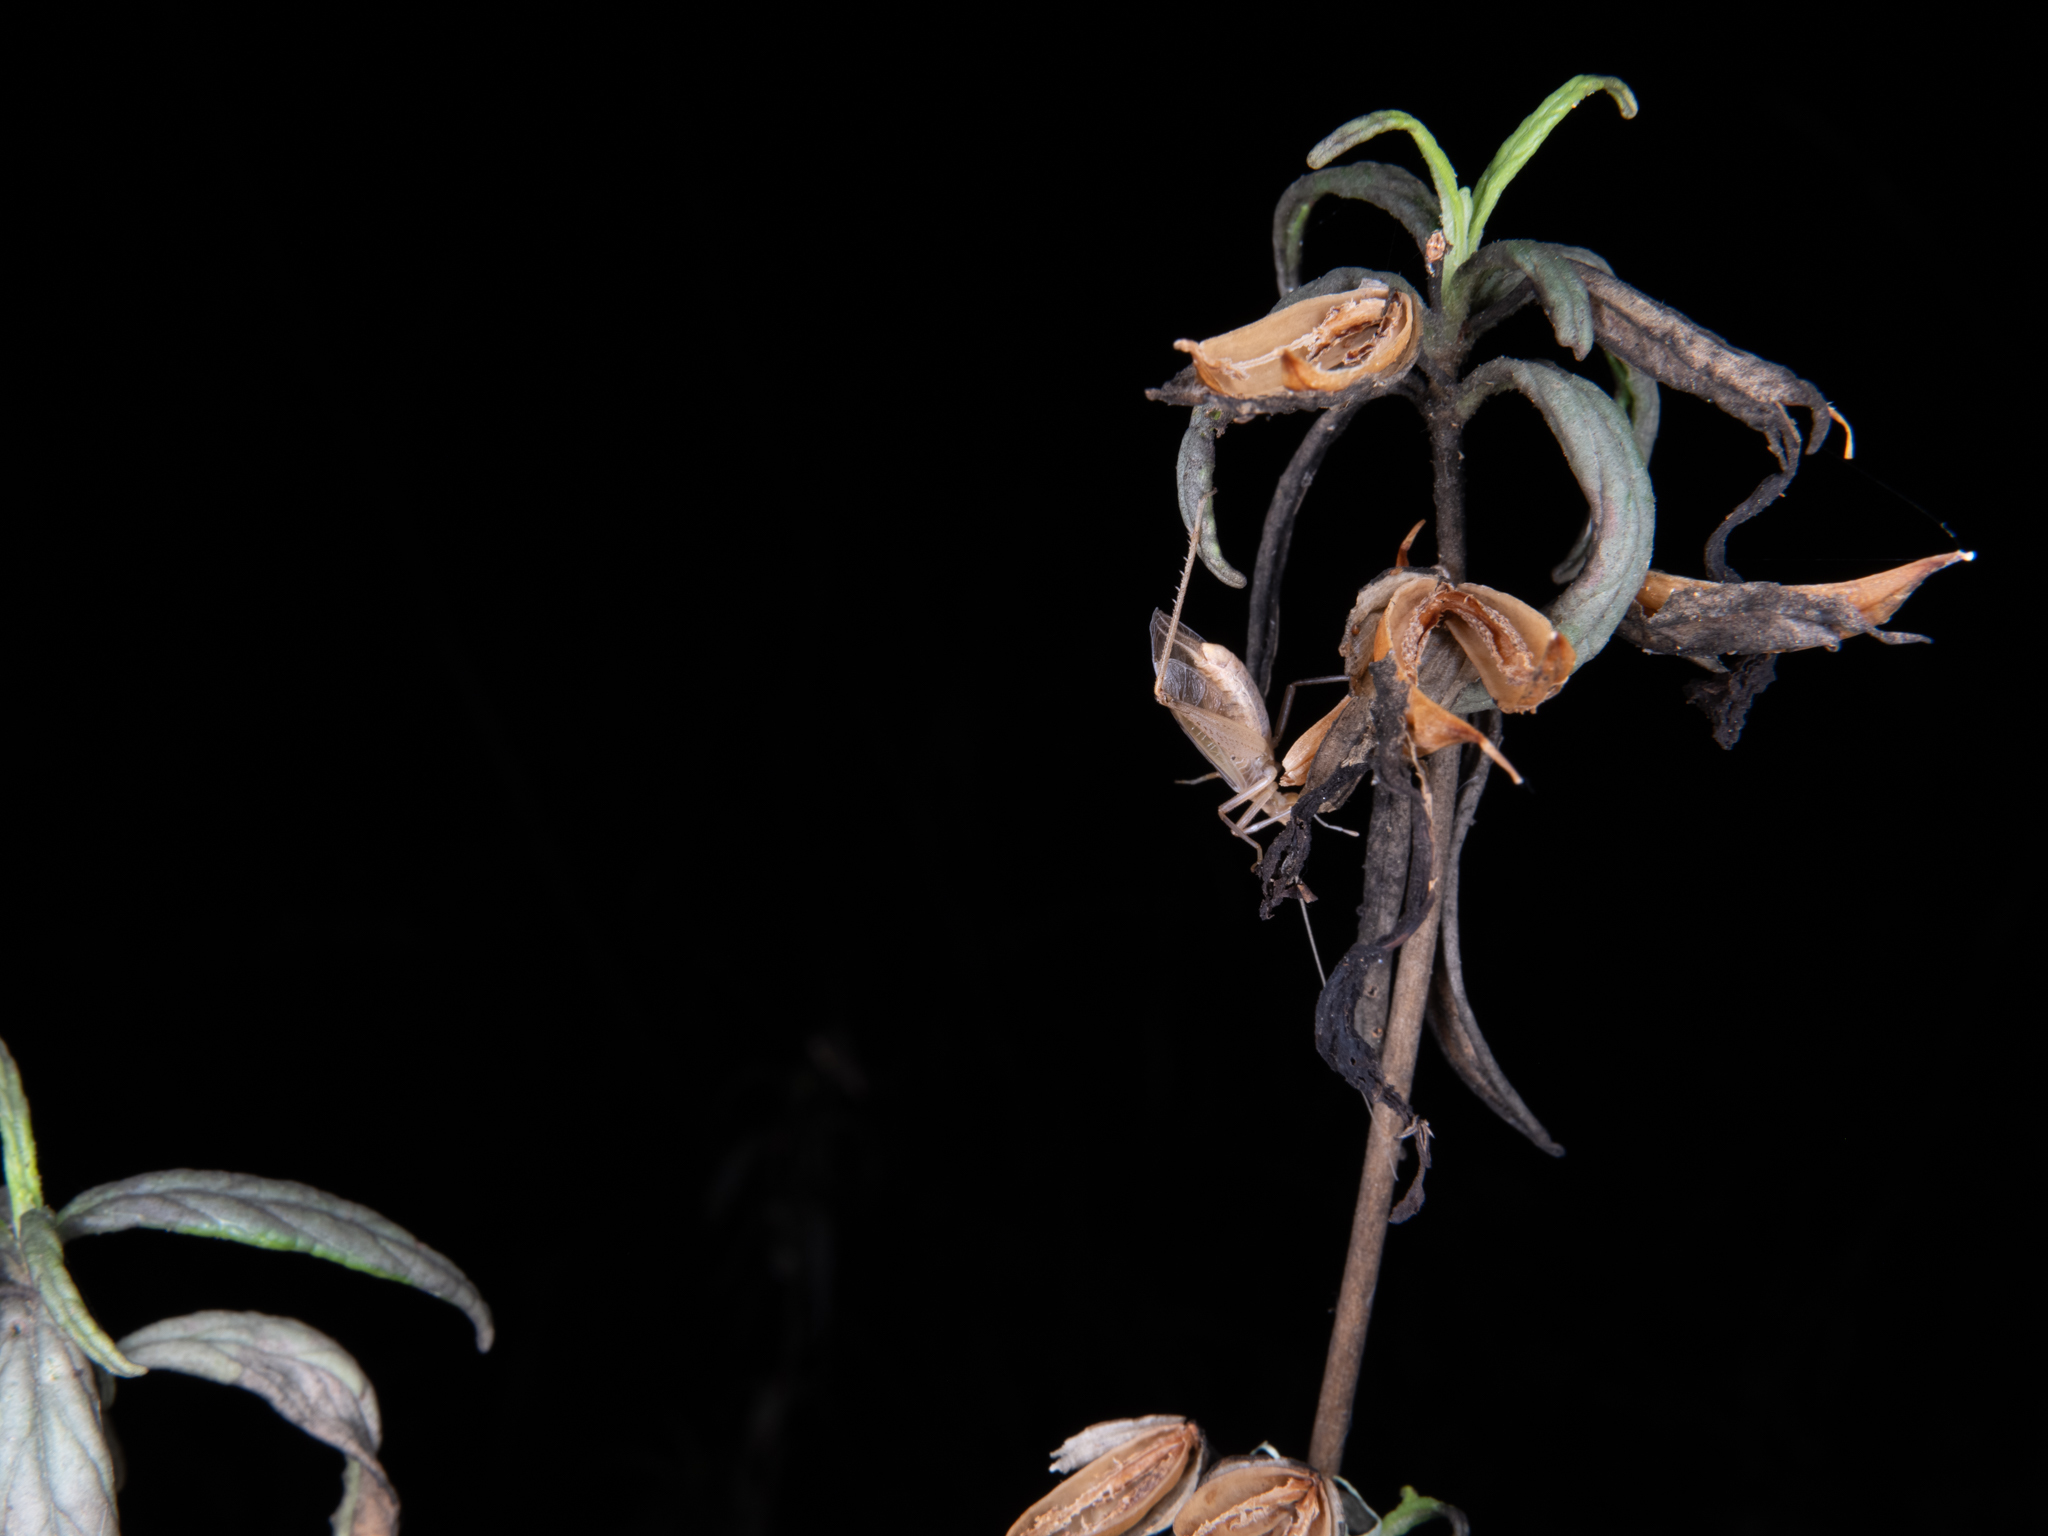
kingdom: Animalia
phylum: Arthropoda
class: Insecta
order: Orthoptera
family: Gryllidae
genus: Oecanthus
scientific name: Oecanthus californicus
